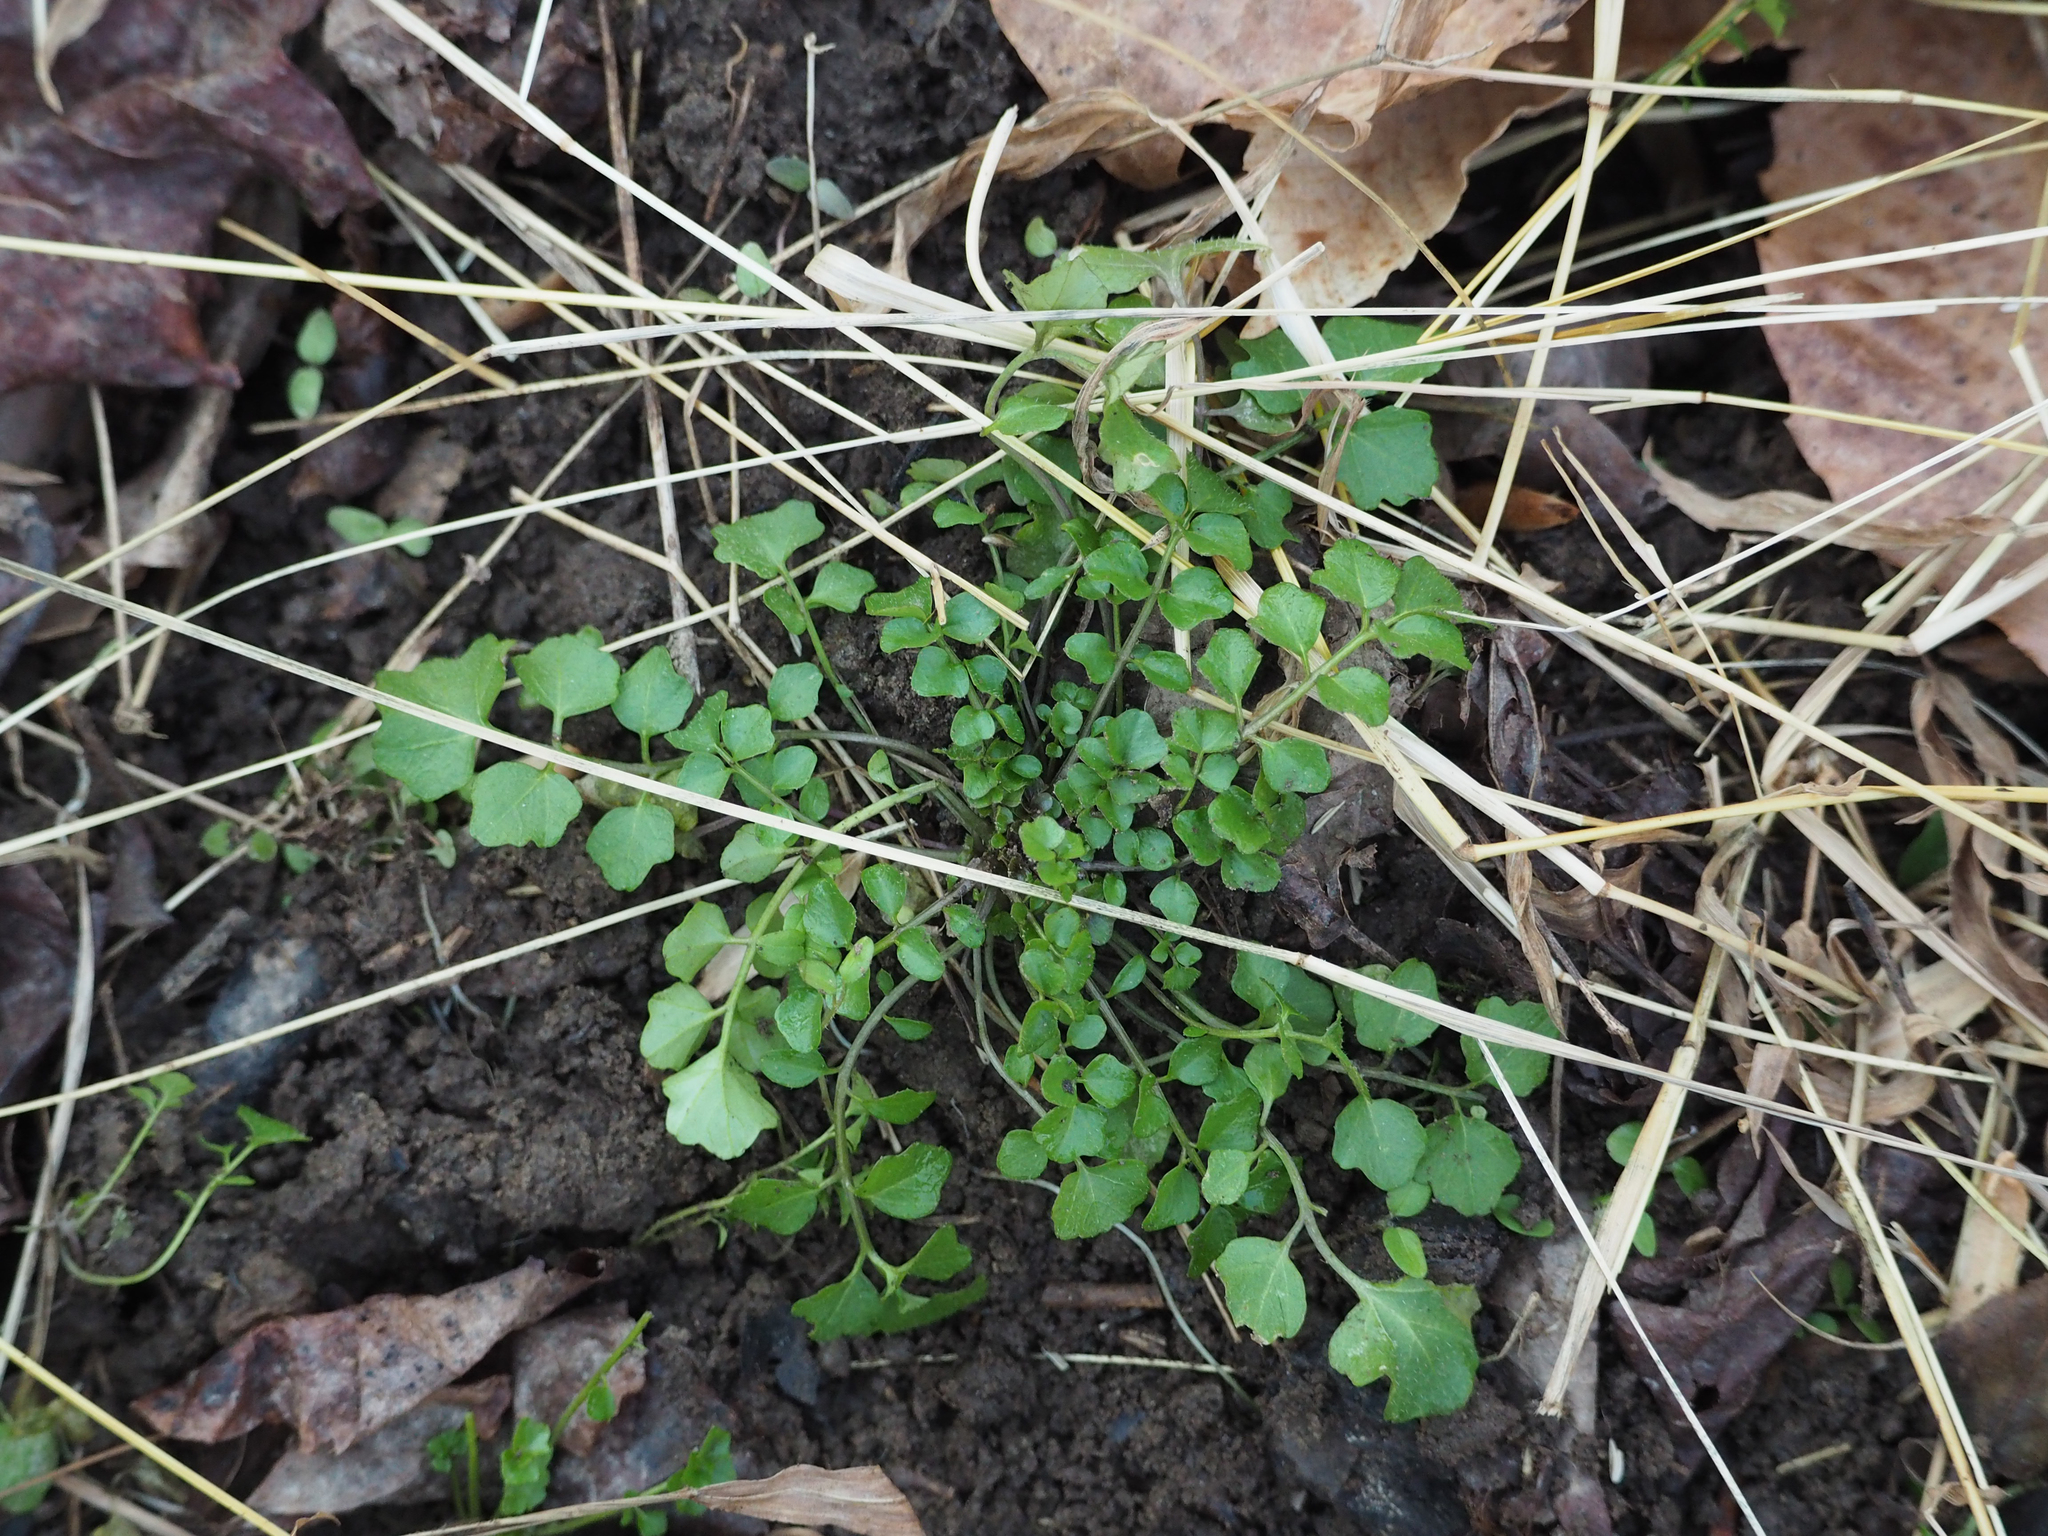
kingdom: Plantae
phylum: Tracheophyta
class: Magnoliopsida
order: Brassicales
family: Brassicaceae
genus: Cardamine
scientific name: Cardamine hirsuta
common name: Hairy bittercress
